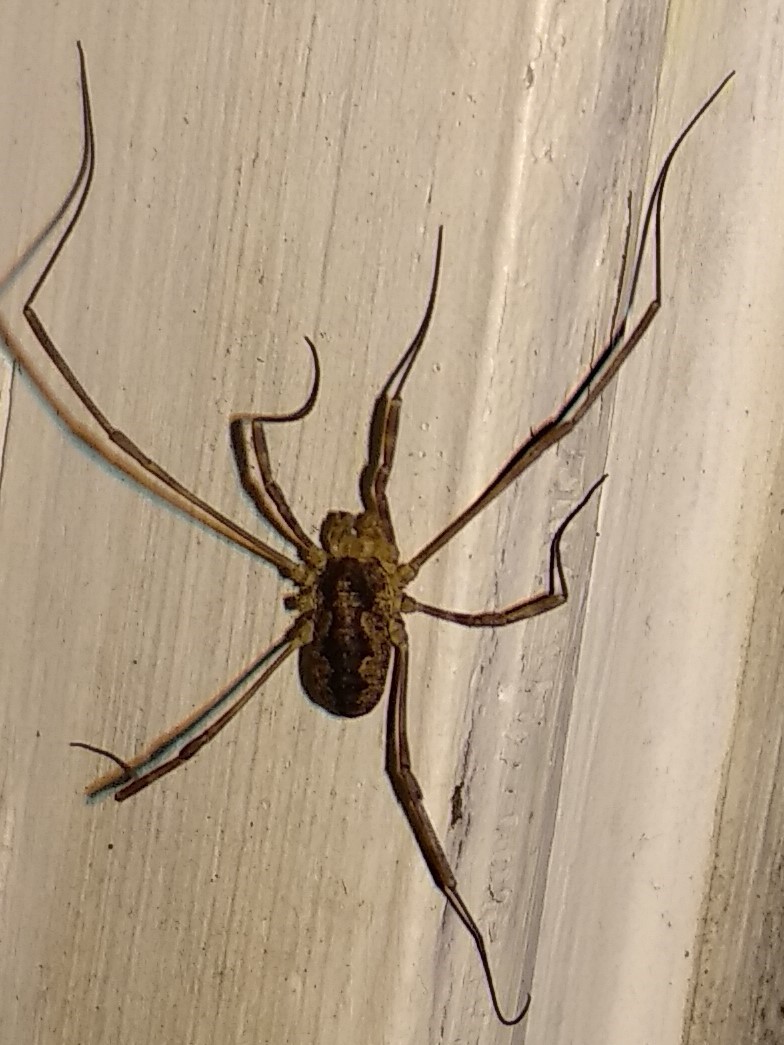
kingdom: Animalia
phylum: Arthropoda
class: Arachnida
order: Opiliones
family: Phalangiidae
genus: Odiellus
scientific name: Odiellus pictus
